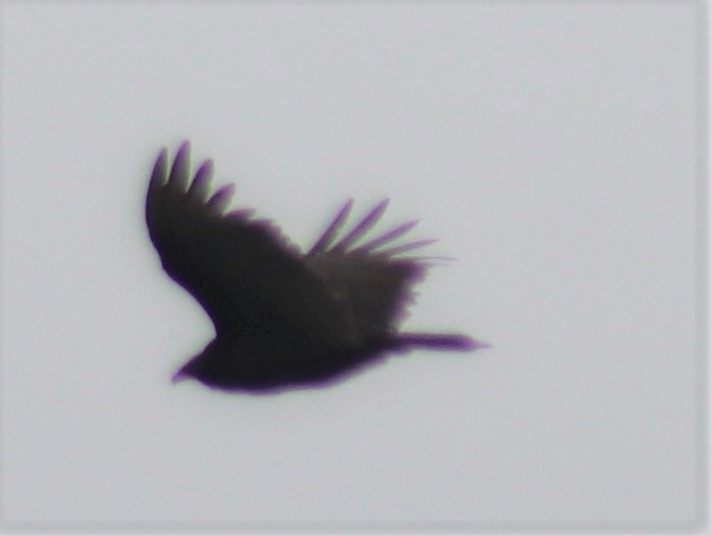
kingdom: Animalia
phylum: Chordata
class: Aves
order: Accipitriformes
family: Cathartidae
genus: Cathartes
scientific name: Cathartes aura
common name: Turkey vulture
